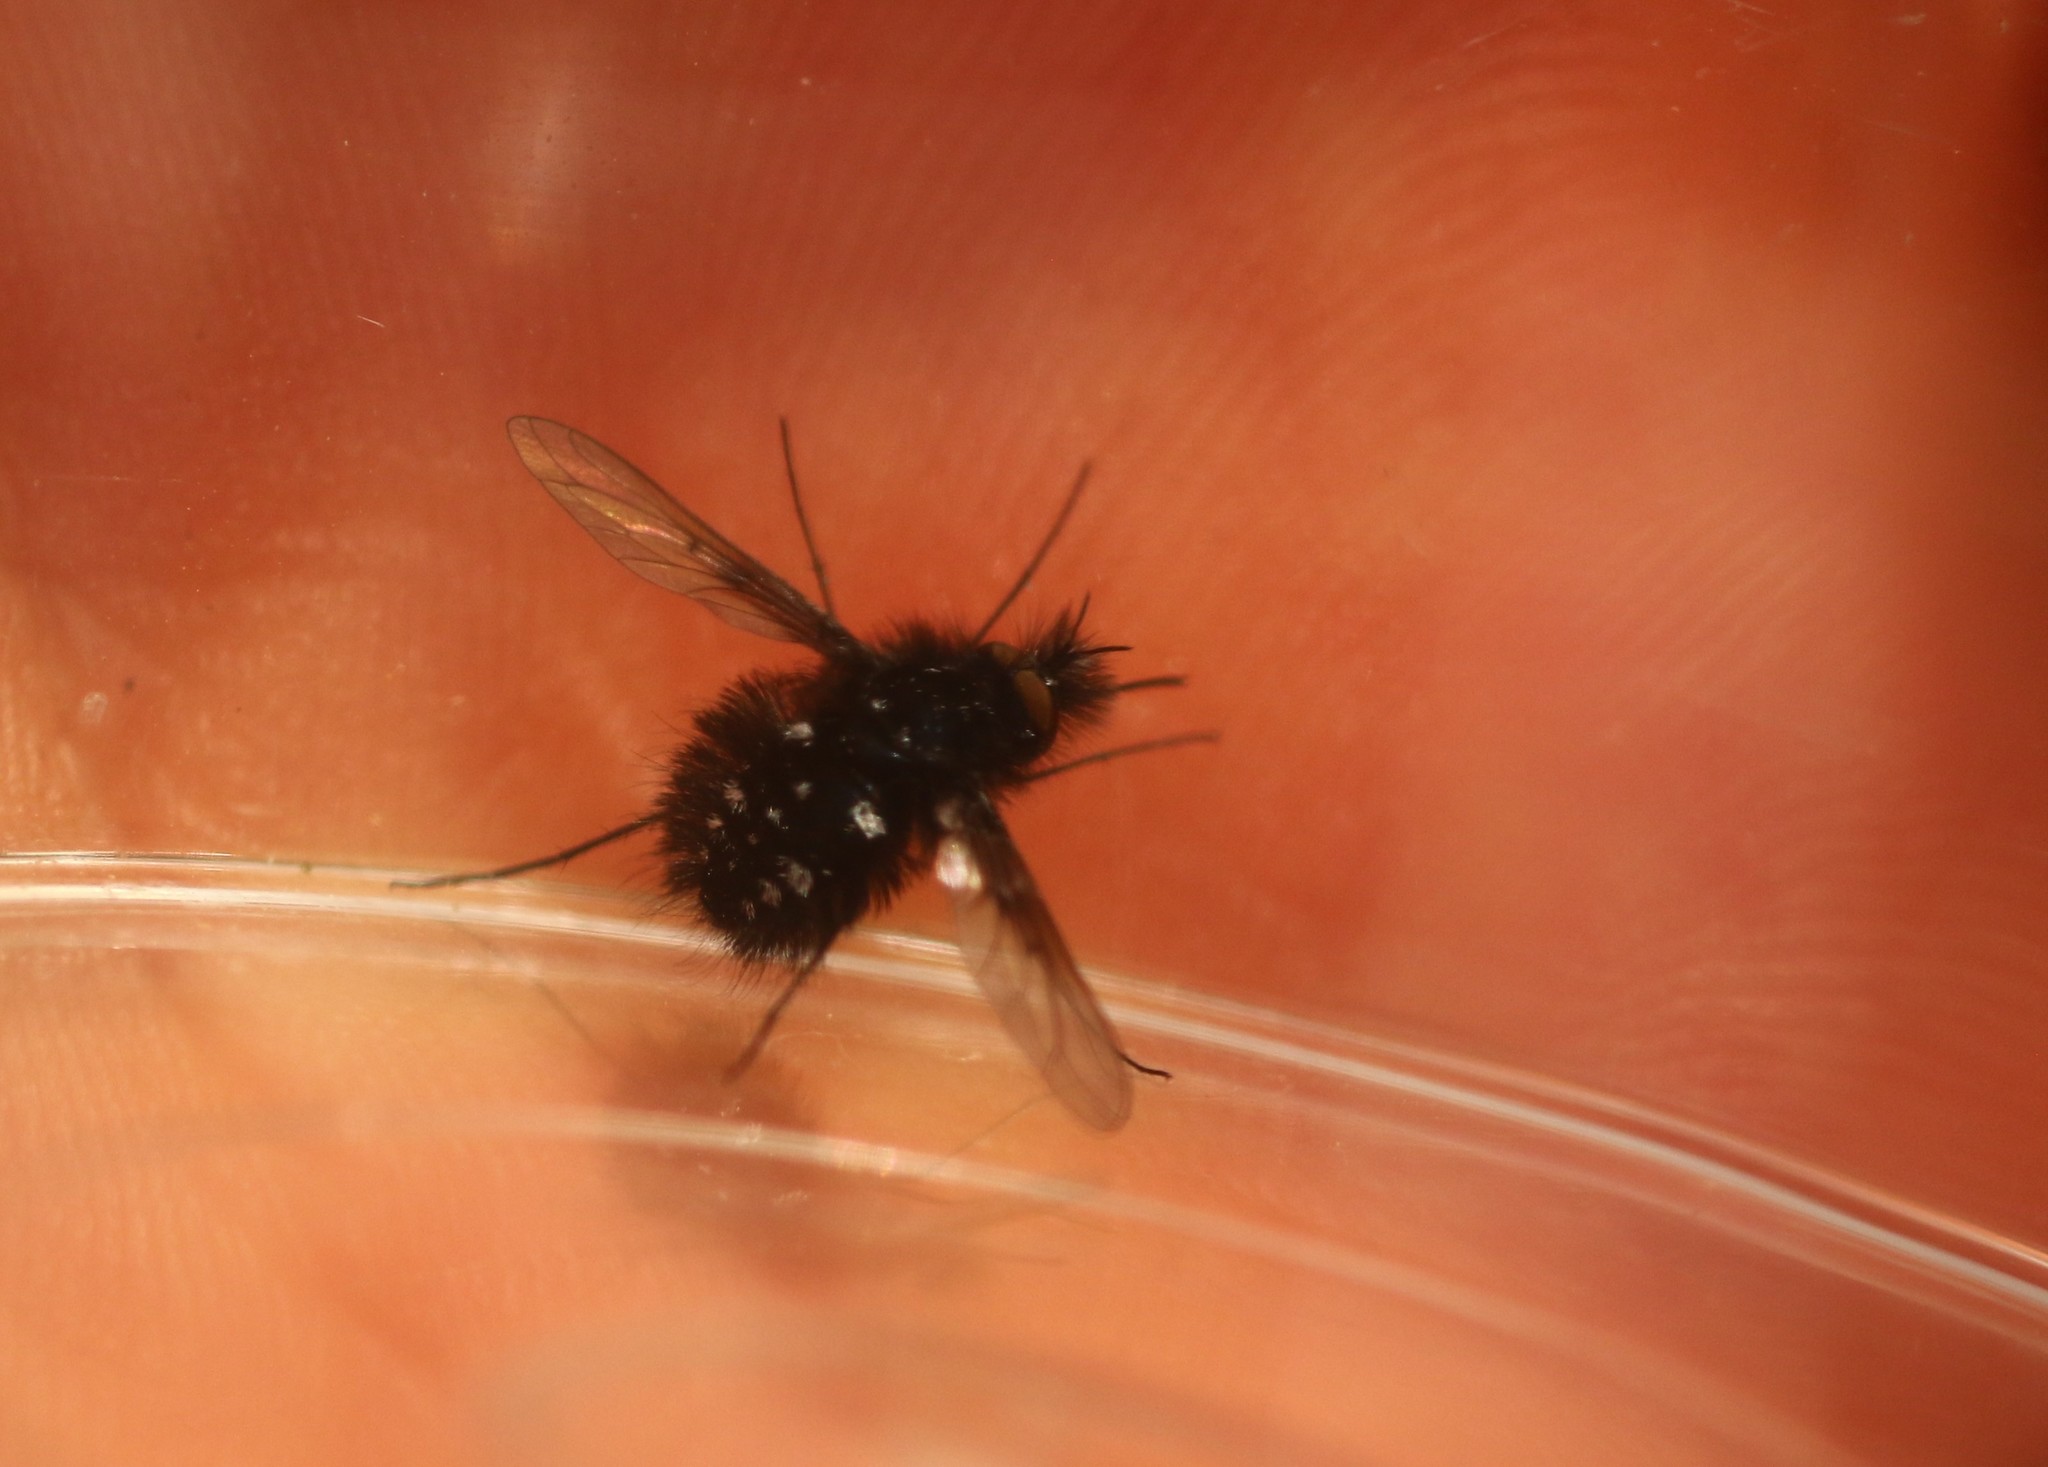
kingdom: Animalia
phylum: Arthropoda
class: Insecta
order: Diptera
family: Bombyliidae
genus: Bombylella
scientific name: Bombylella atra
